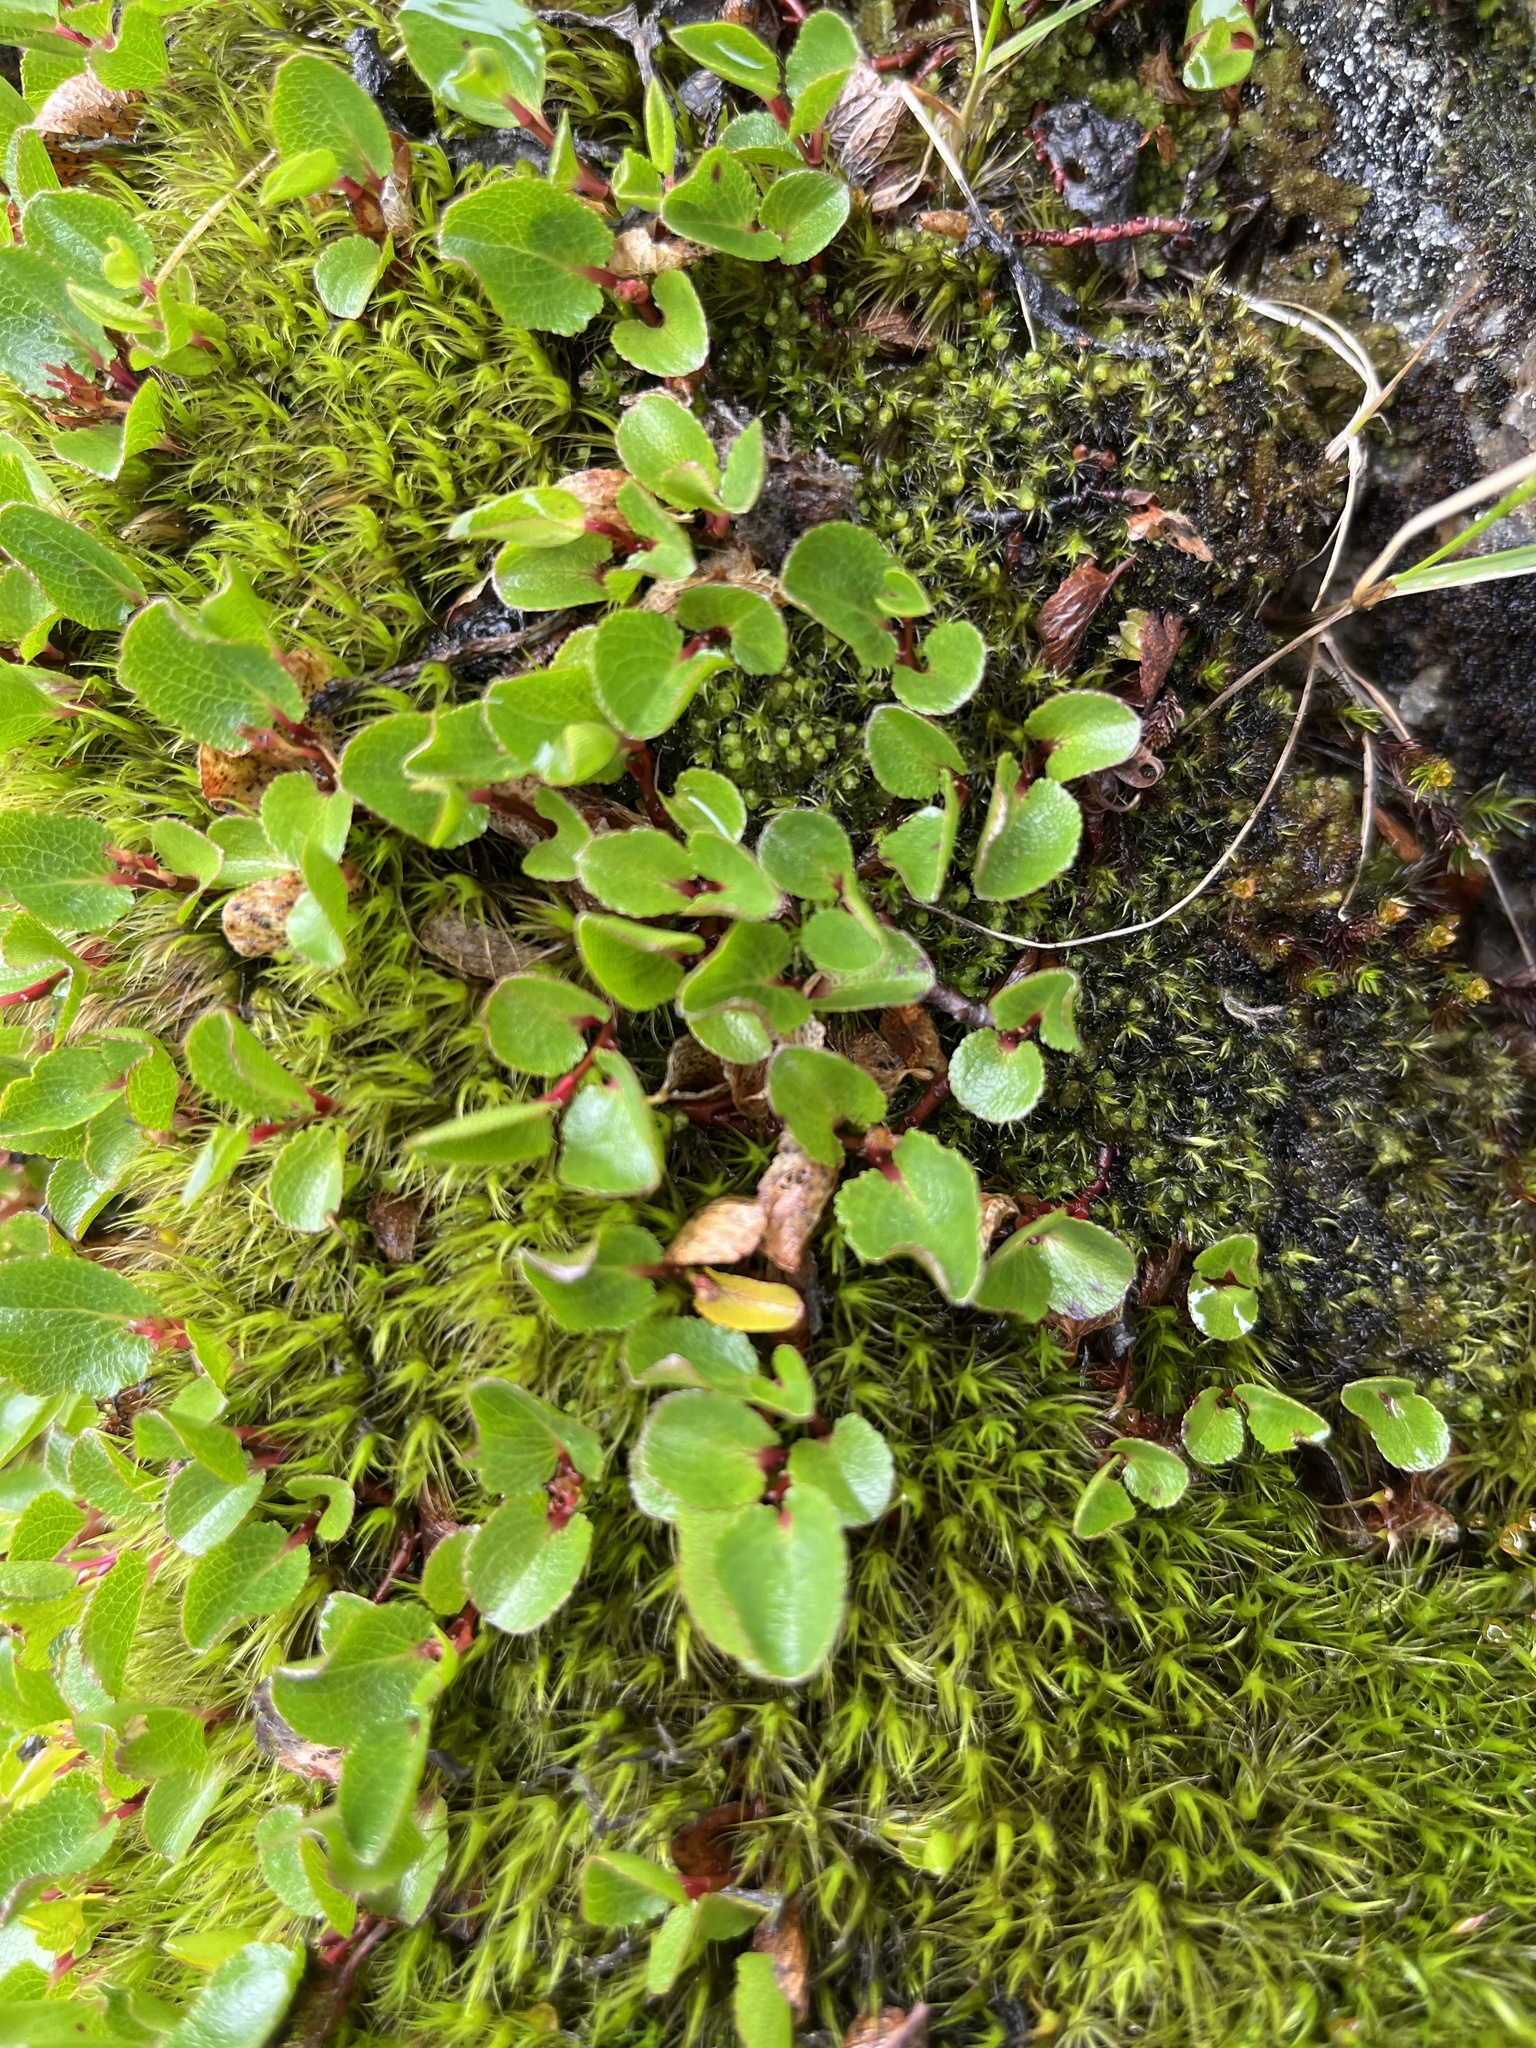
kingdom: Plantae
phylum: Tracheophyta
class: Magnoliopsida
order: Malpighiales
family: Salicaceae
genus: Salix
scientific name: Salix herbacea
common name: Dwarf willow
